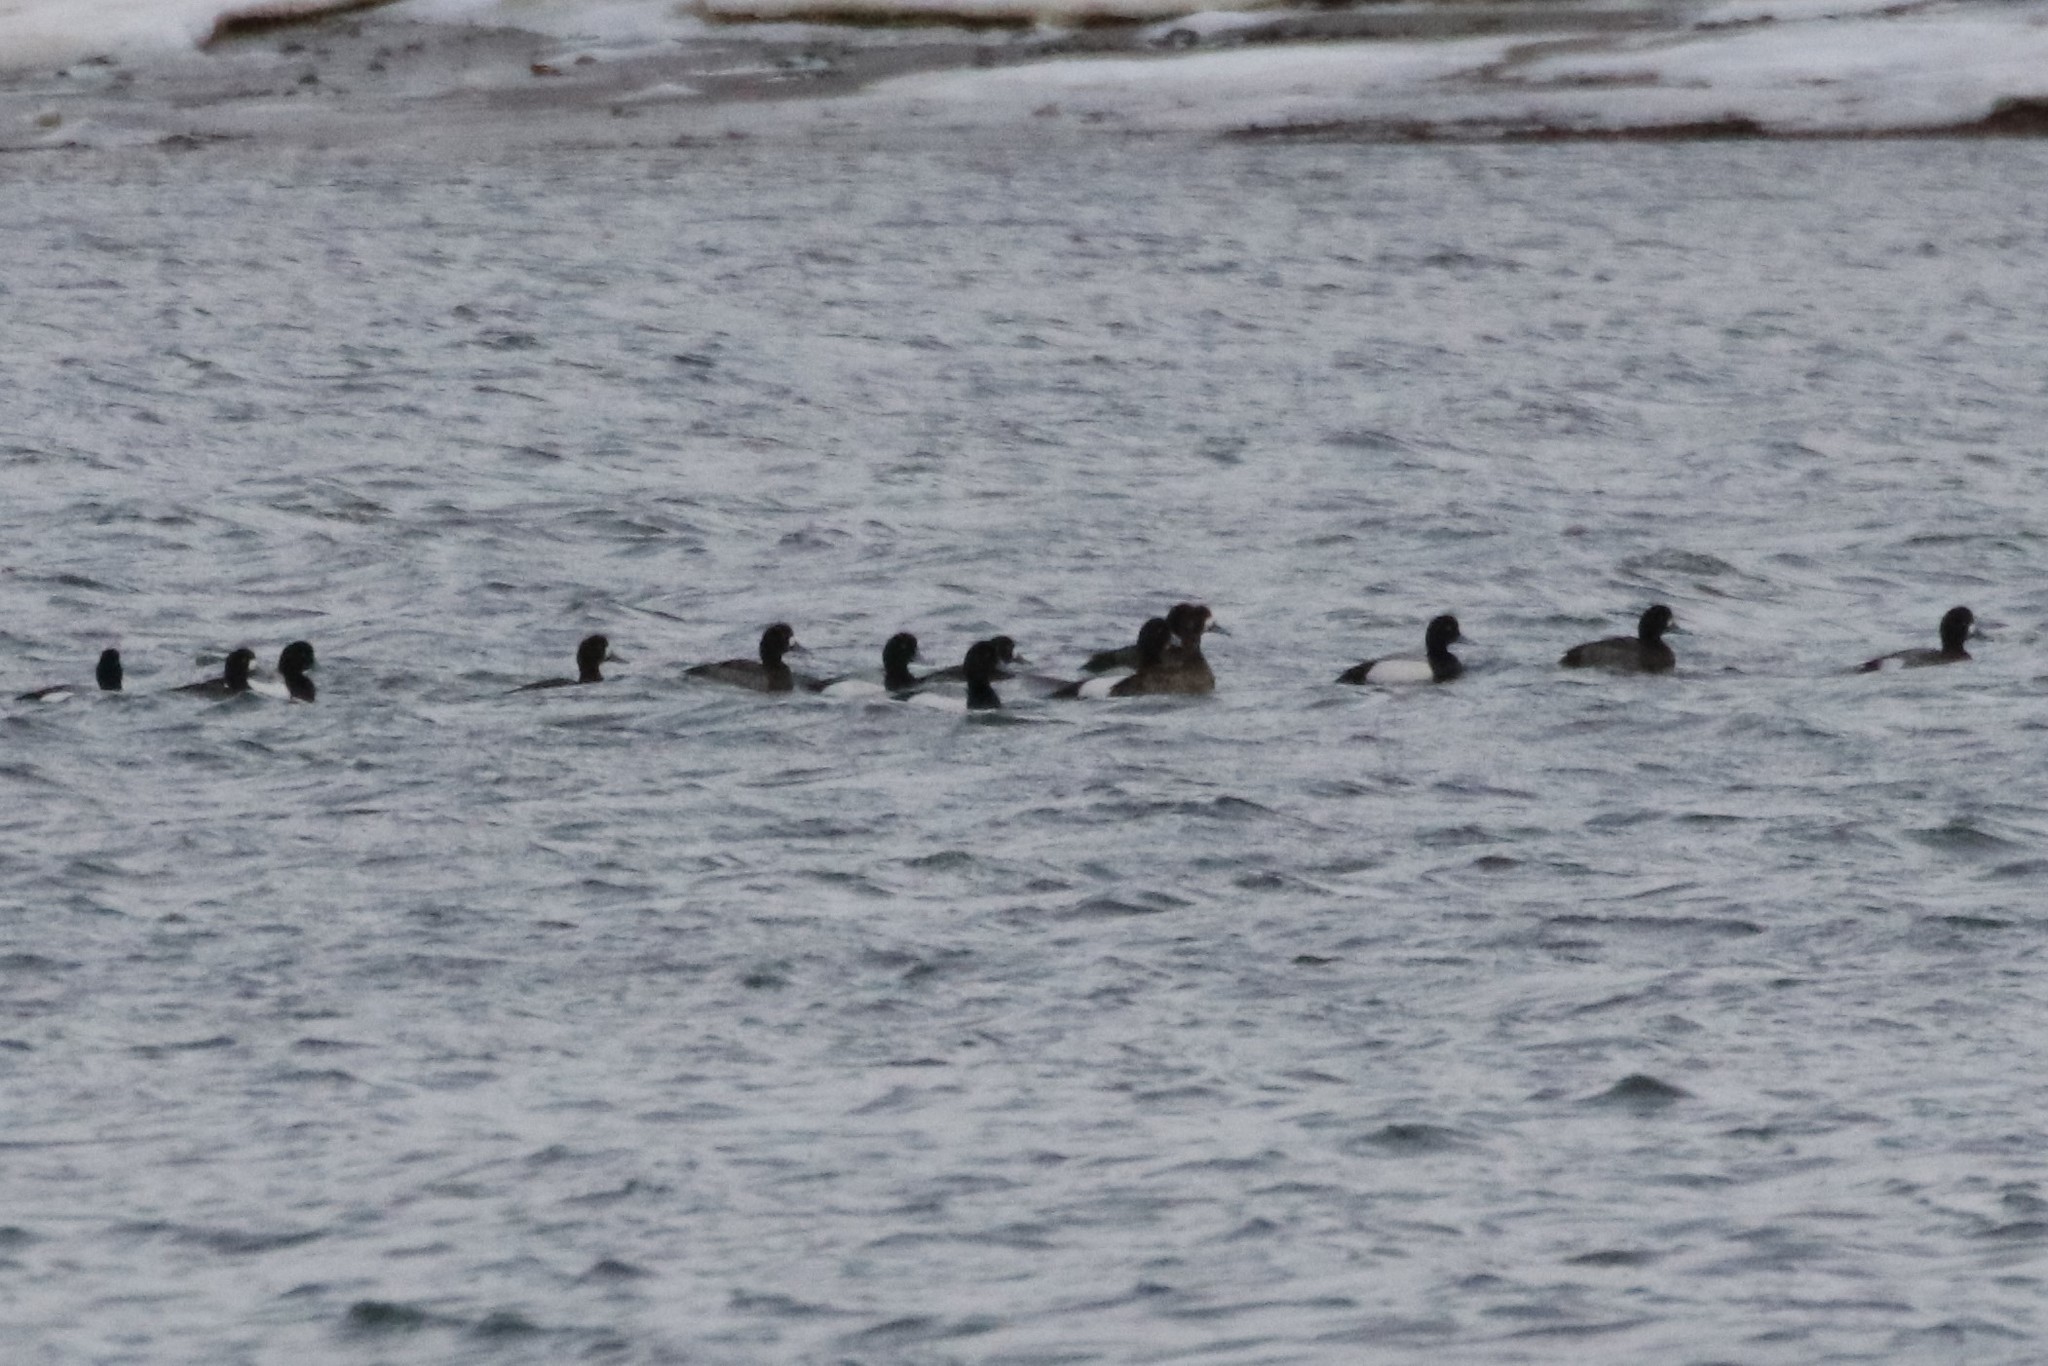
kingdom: Animalia
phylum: Chordata
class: Aves
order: Anseriformes
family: Anatidae
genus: Aythya
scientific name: Aythya marila
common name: Greater scaup
